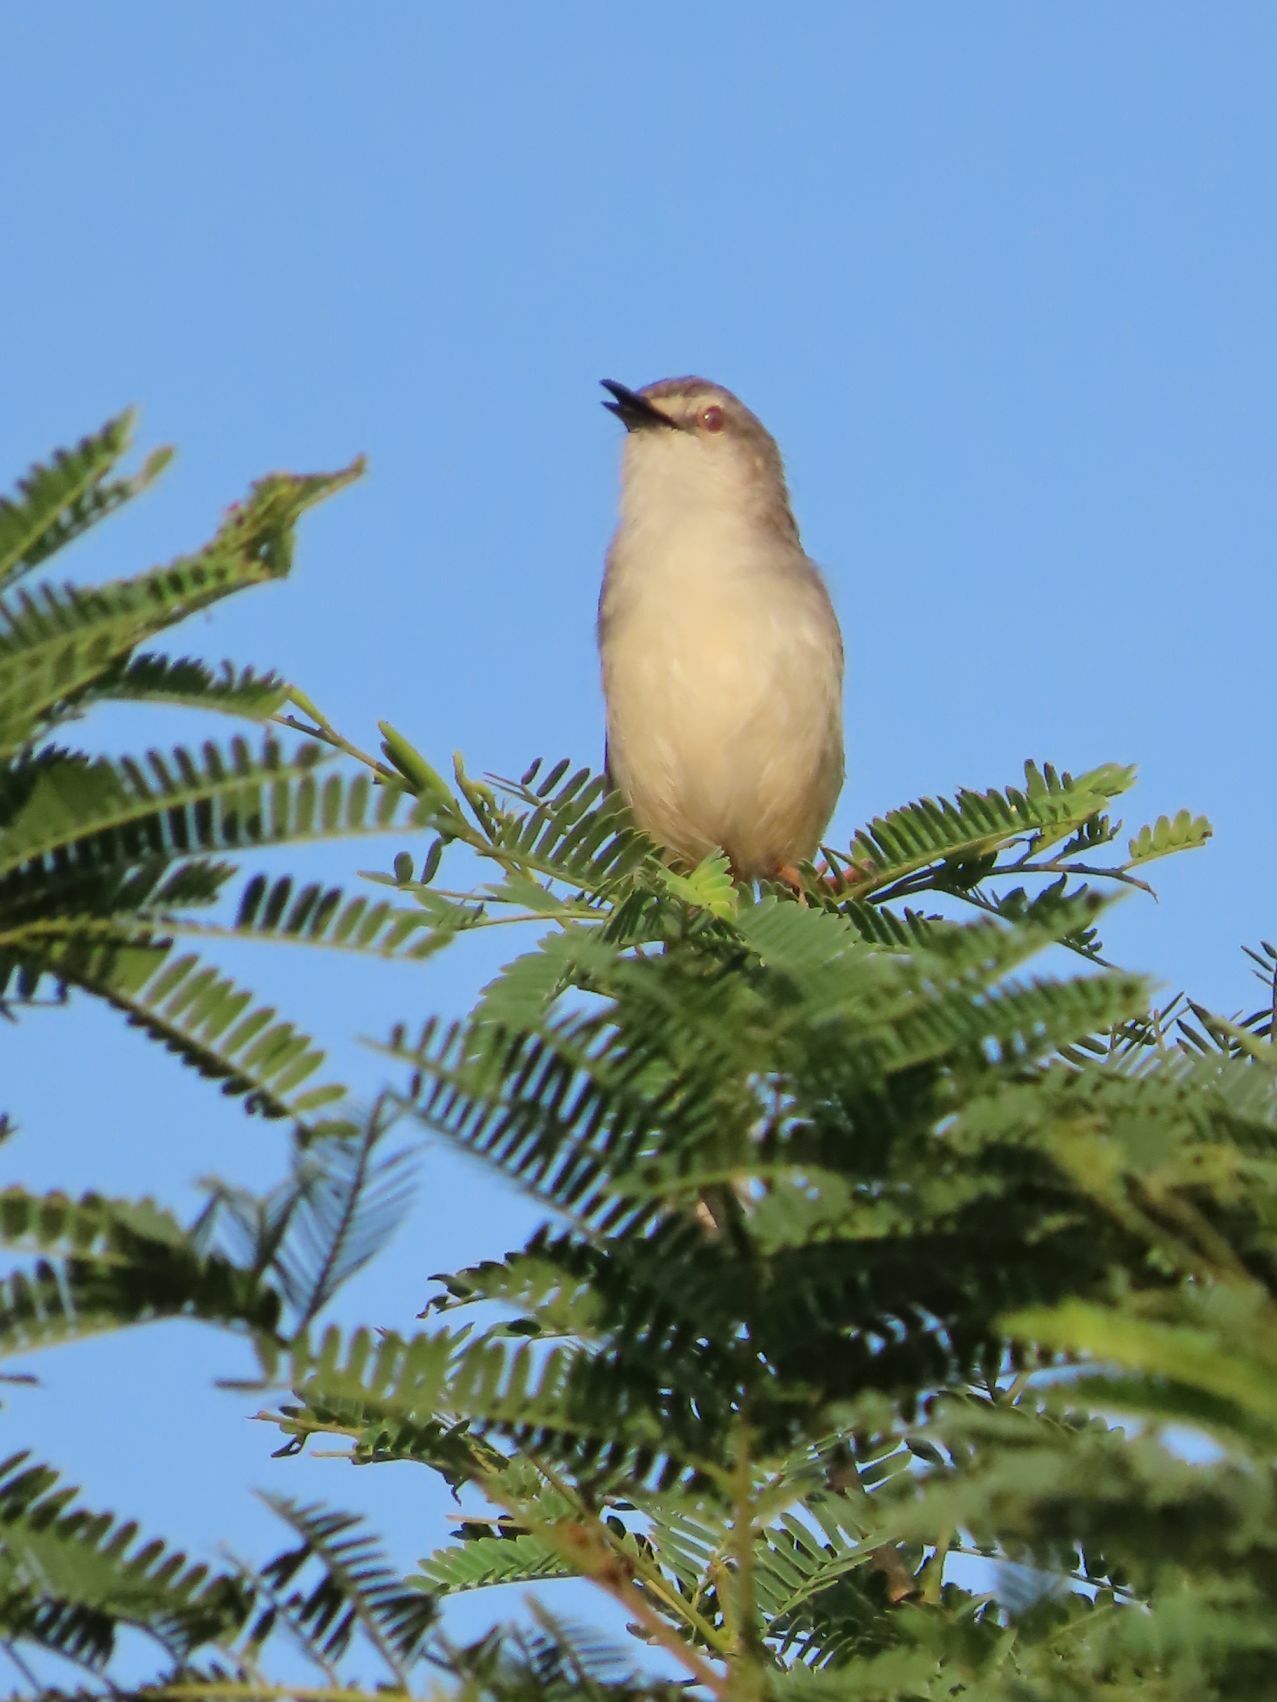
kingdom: Animalia
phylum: Chordata
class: Aves
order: Passeriformes
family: Cisticolidae
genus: Prinia
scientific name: Prinia subflava
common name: Tawny-flanked prinia
